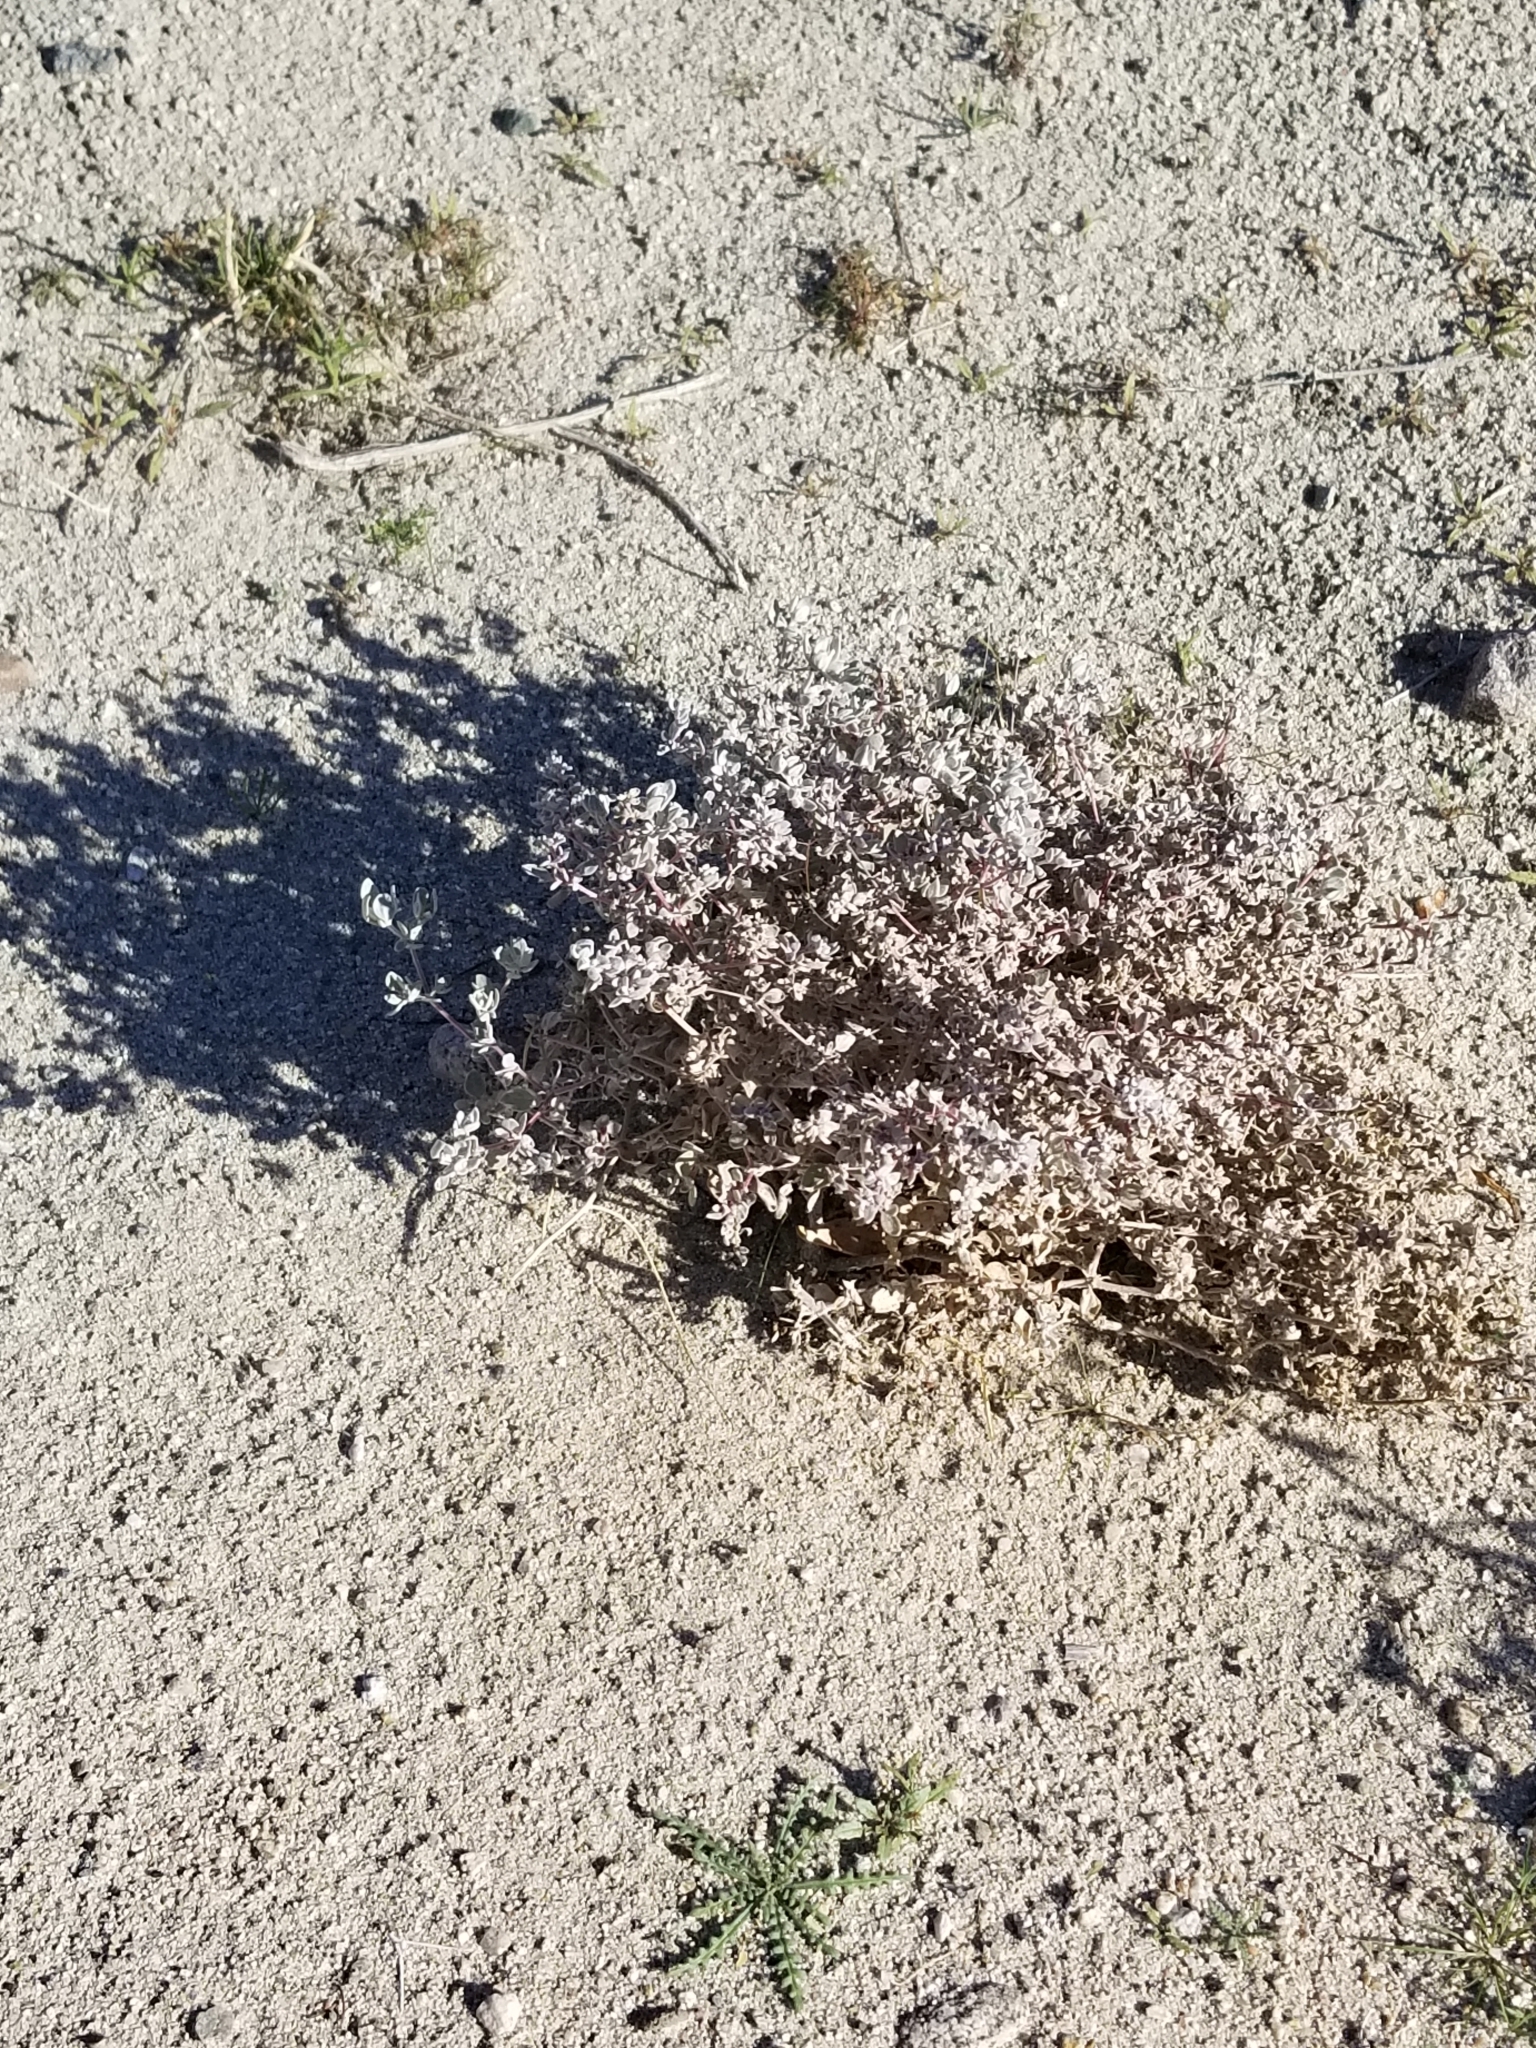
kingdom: Plantae
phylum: Tracheophyta
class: Magnoliopsida
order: Caryophyllales
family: Amaranthaceae
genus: Tidestromia
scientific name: Tidestromia suffruticosa
